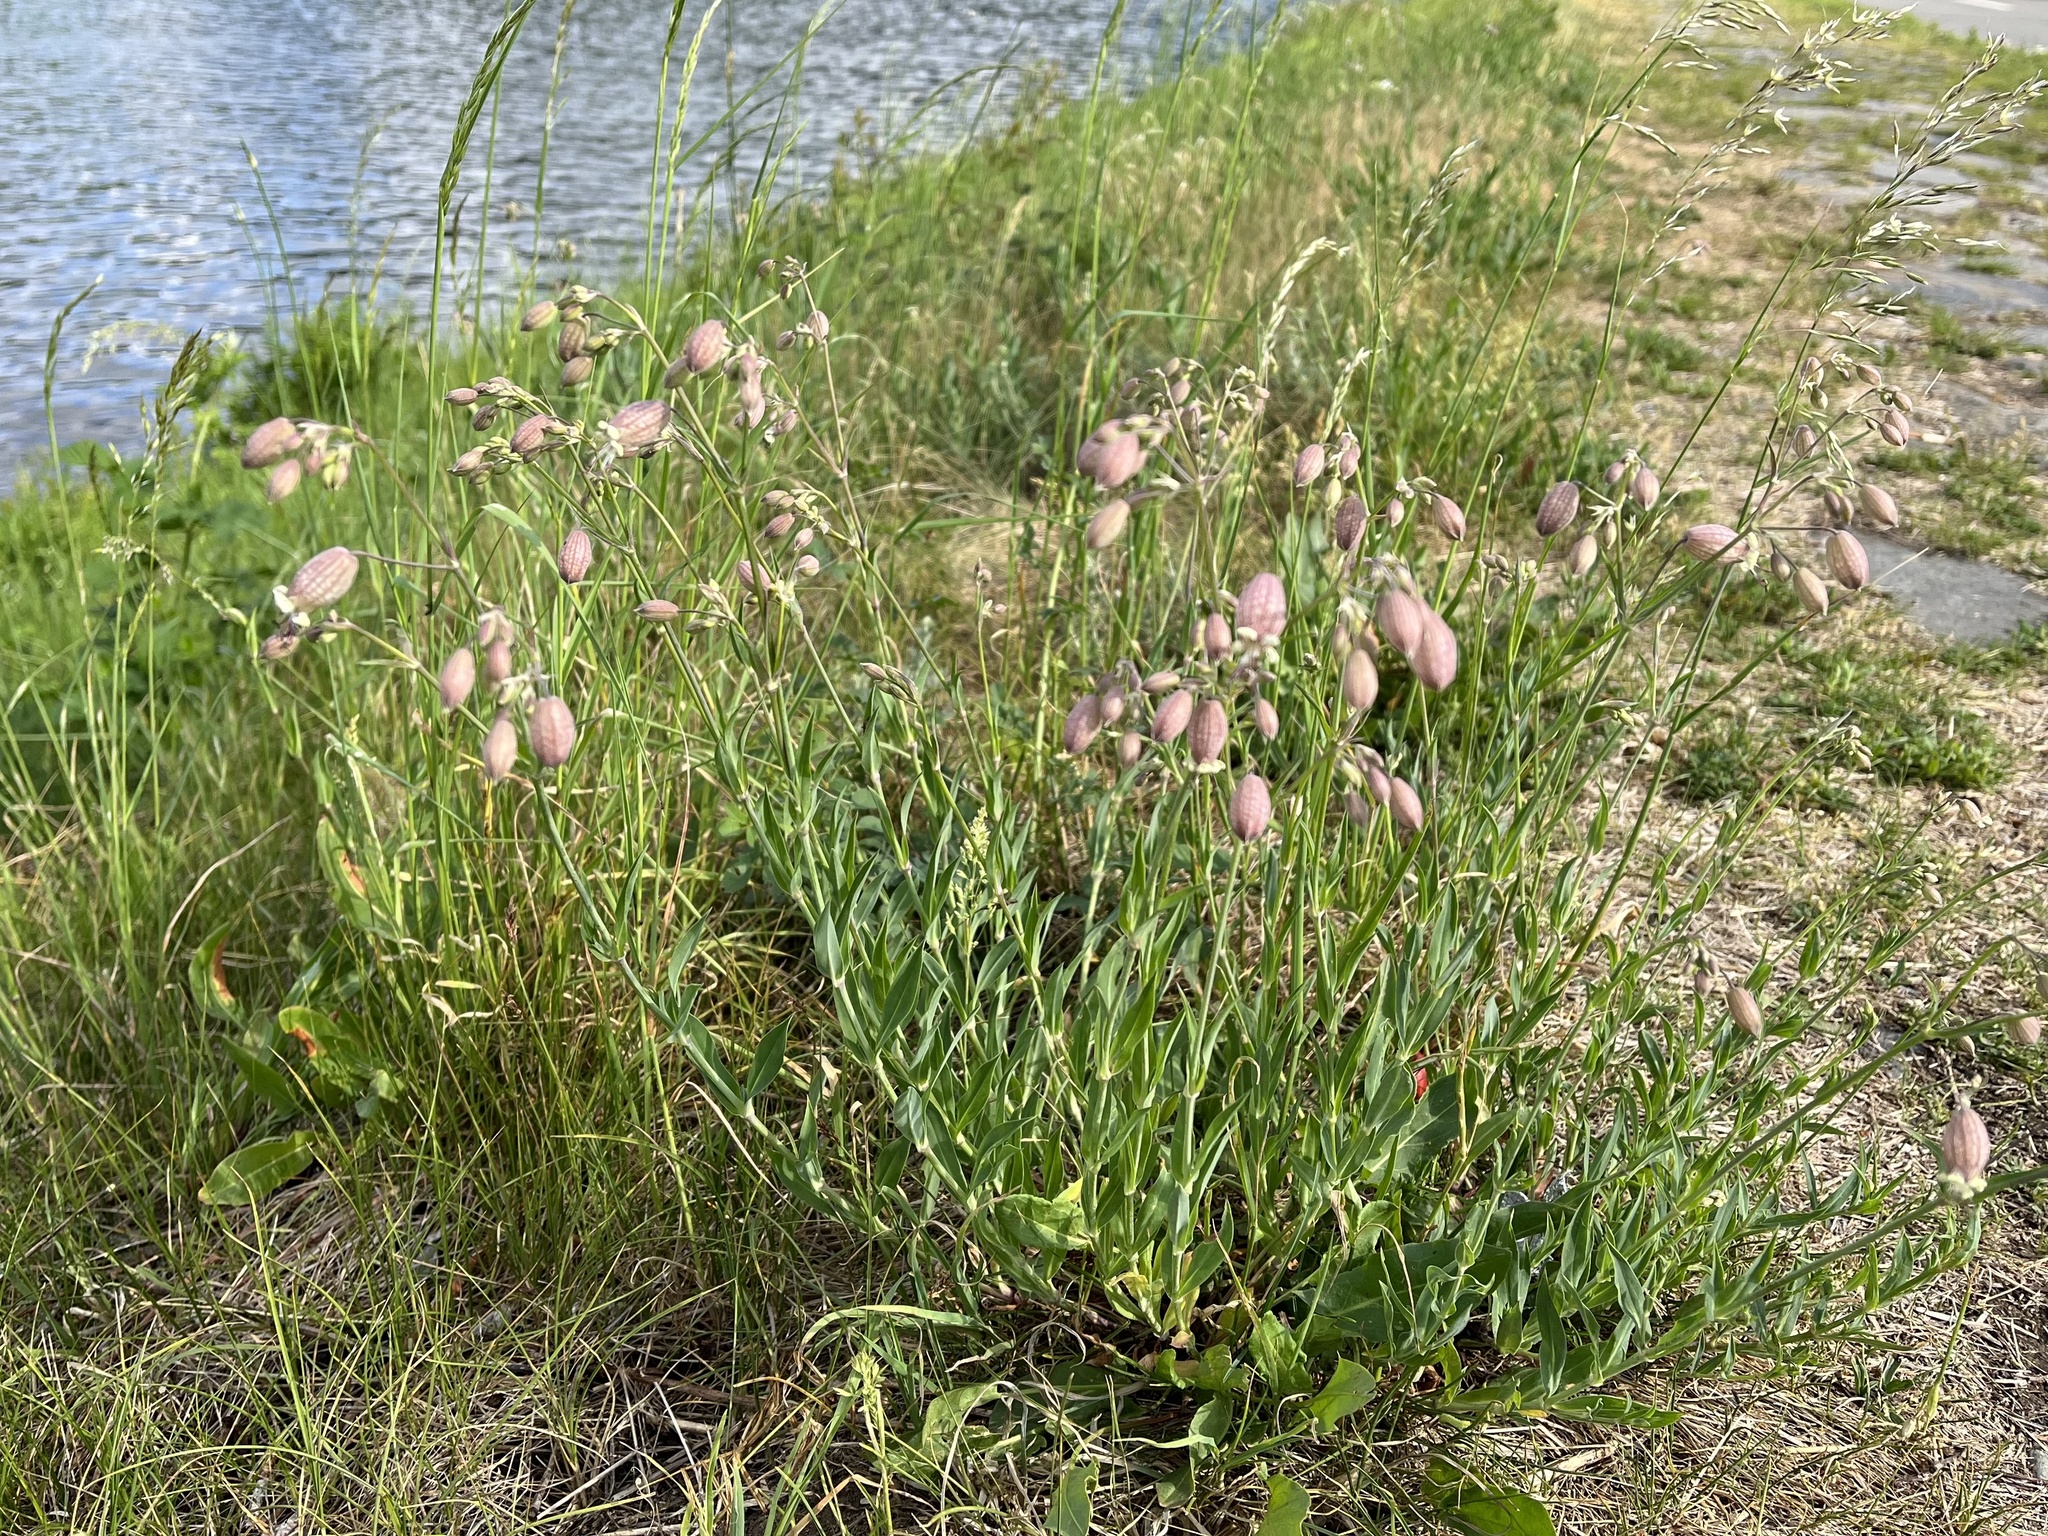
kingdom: Plantae
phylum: Tracheophyta
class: Magnoliopsida
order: Caryophyllales
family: Caryophyllaceae
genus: Silene
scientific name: Silene vulgaris
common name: Bladder campion
